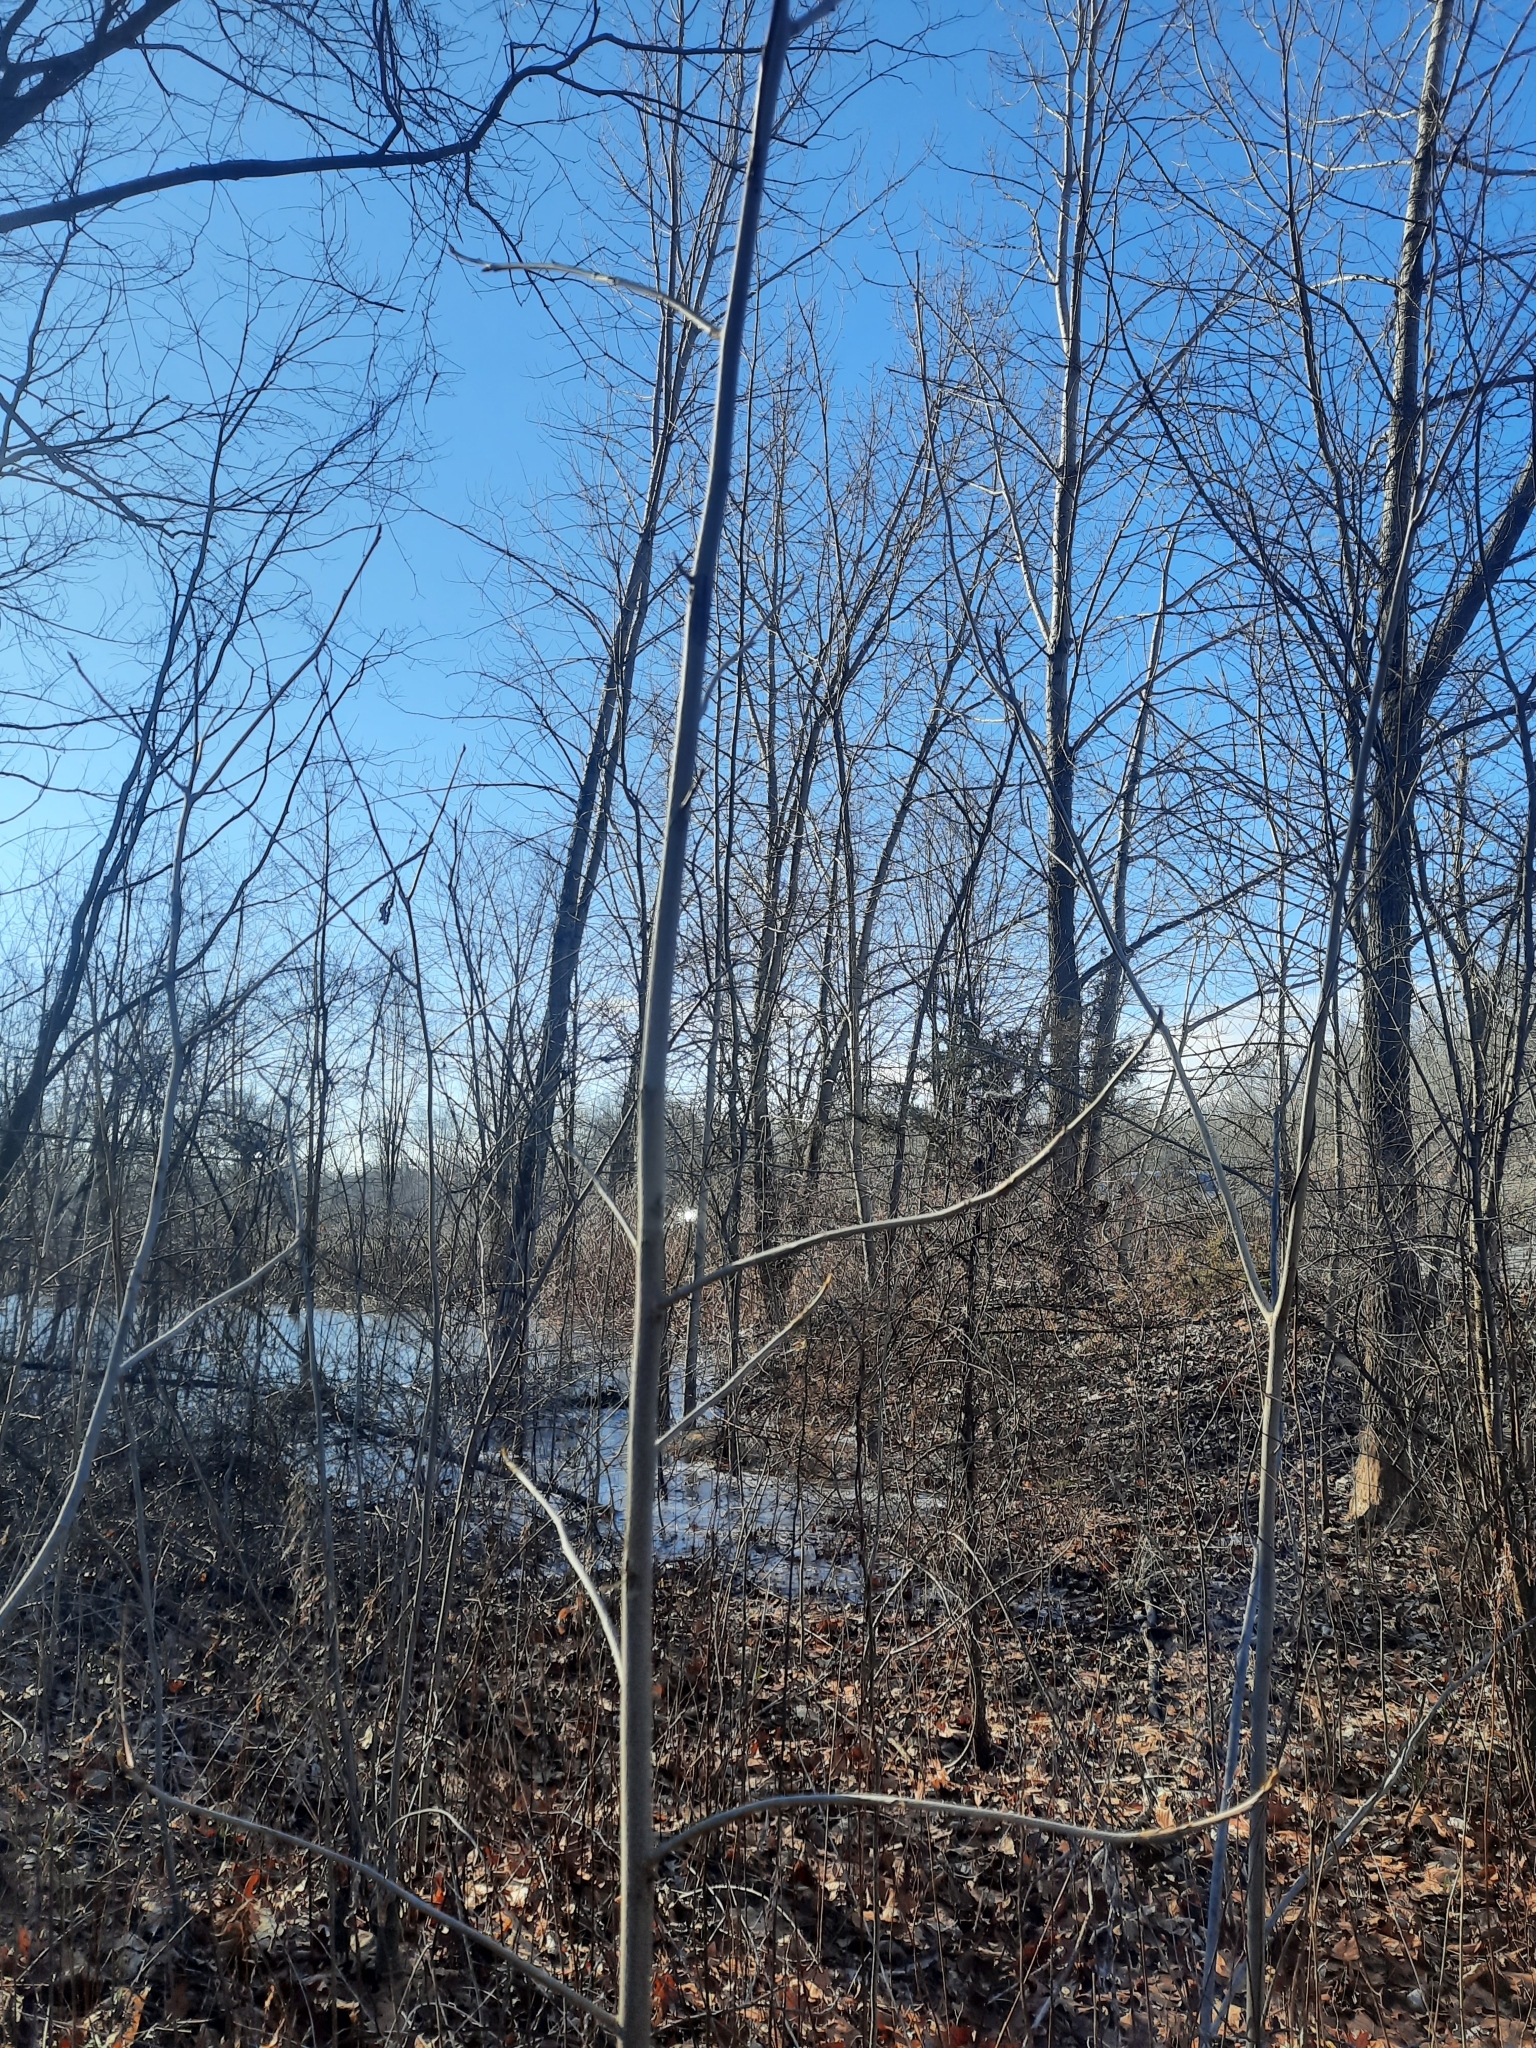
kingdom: Plantae
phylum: Tracheophyta
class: Magnoliopsida
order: Fagales
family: Juglandaceae
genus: Carya
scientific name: Carya cordiformis
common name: Bitternut hickory
